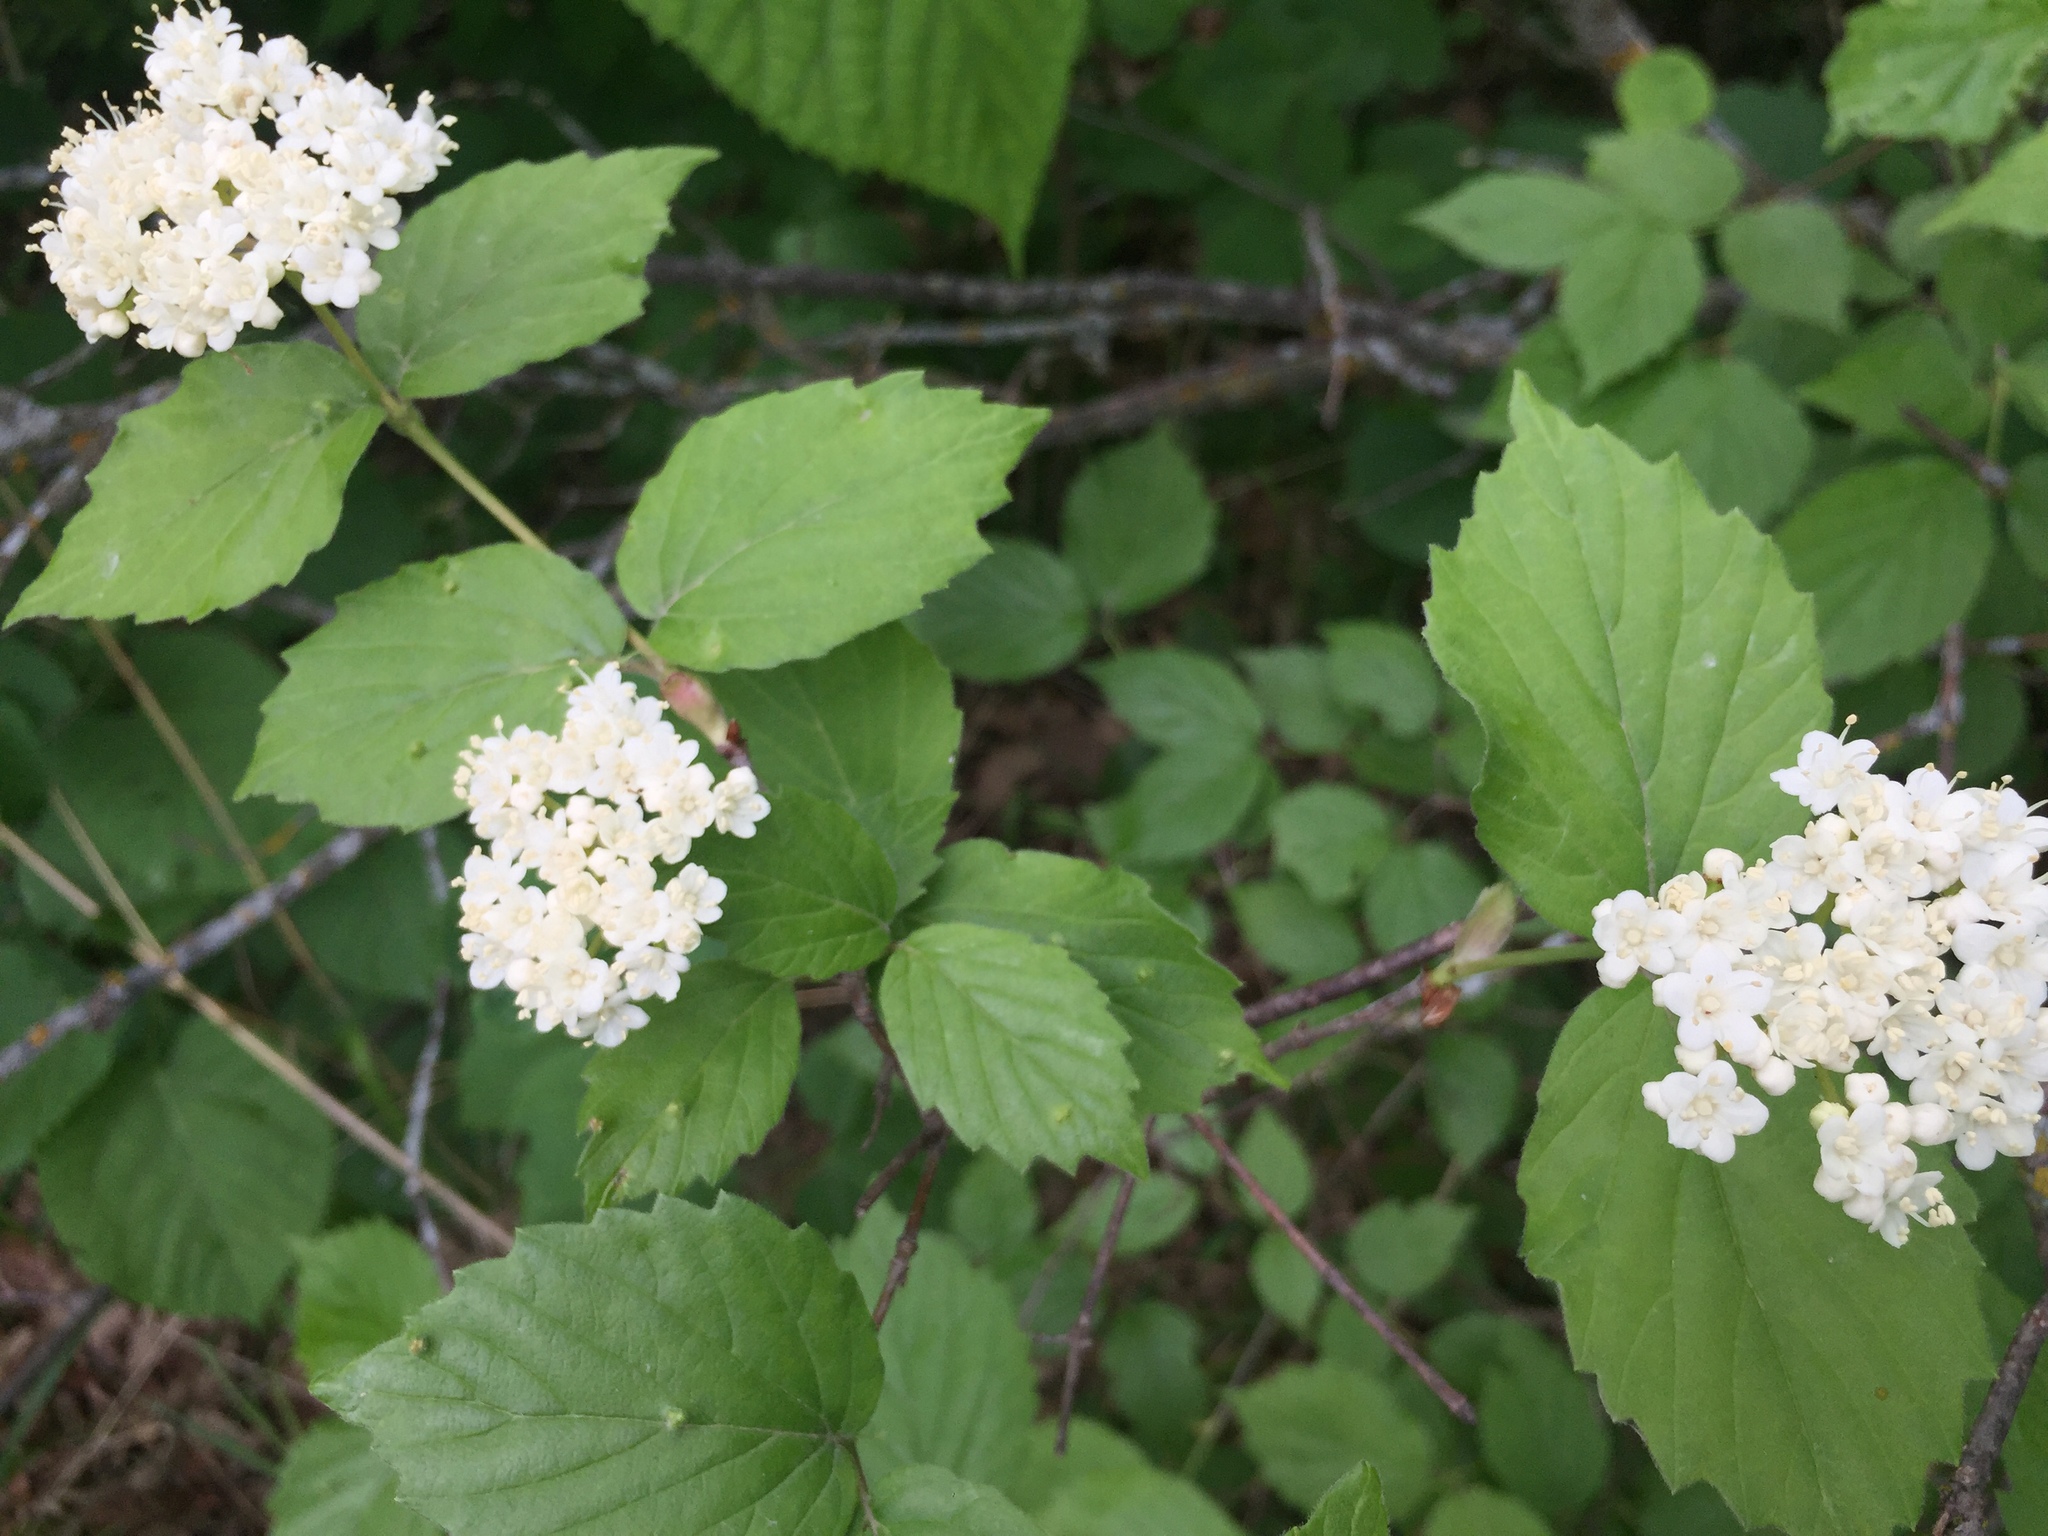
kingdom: Plantae
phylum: Tracheophyta
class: Magnoliopsida
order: Dipsacales
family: Viburnaceae
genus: Viburnum
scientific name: Viburnum rafinesqueanum
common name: Downy arrow-wood
